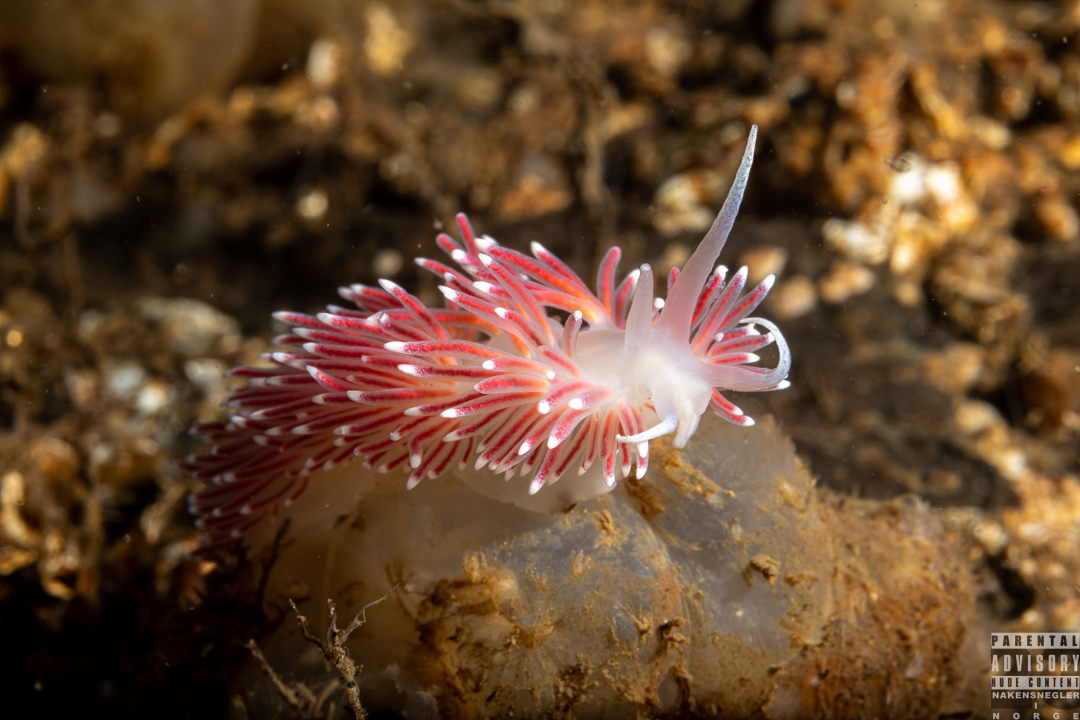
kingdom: Animalia
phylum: Mollusca
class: Gastropoda
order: Nudibranchia
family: Flabellinidae
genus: Carronella
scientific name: Carronella pellucida
